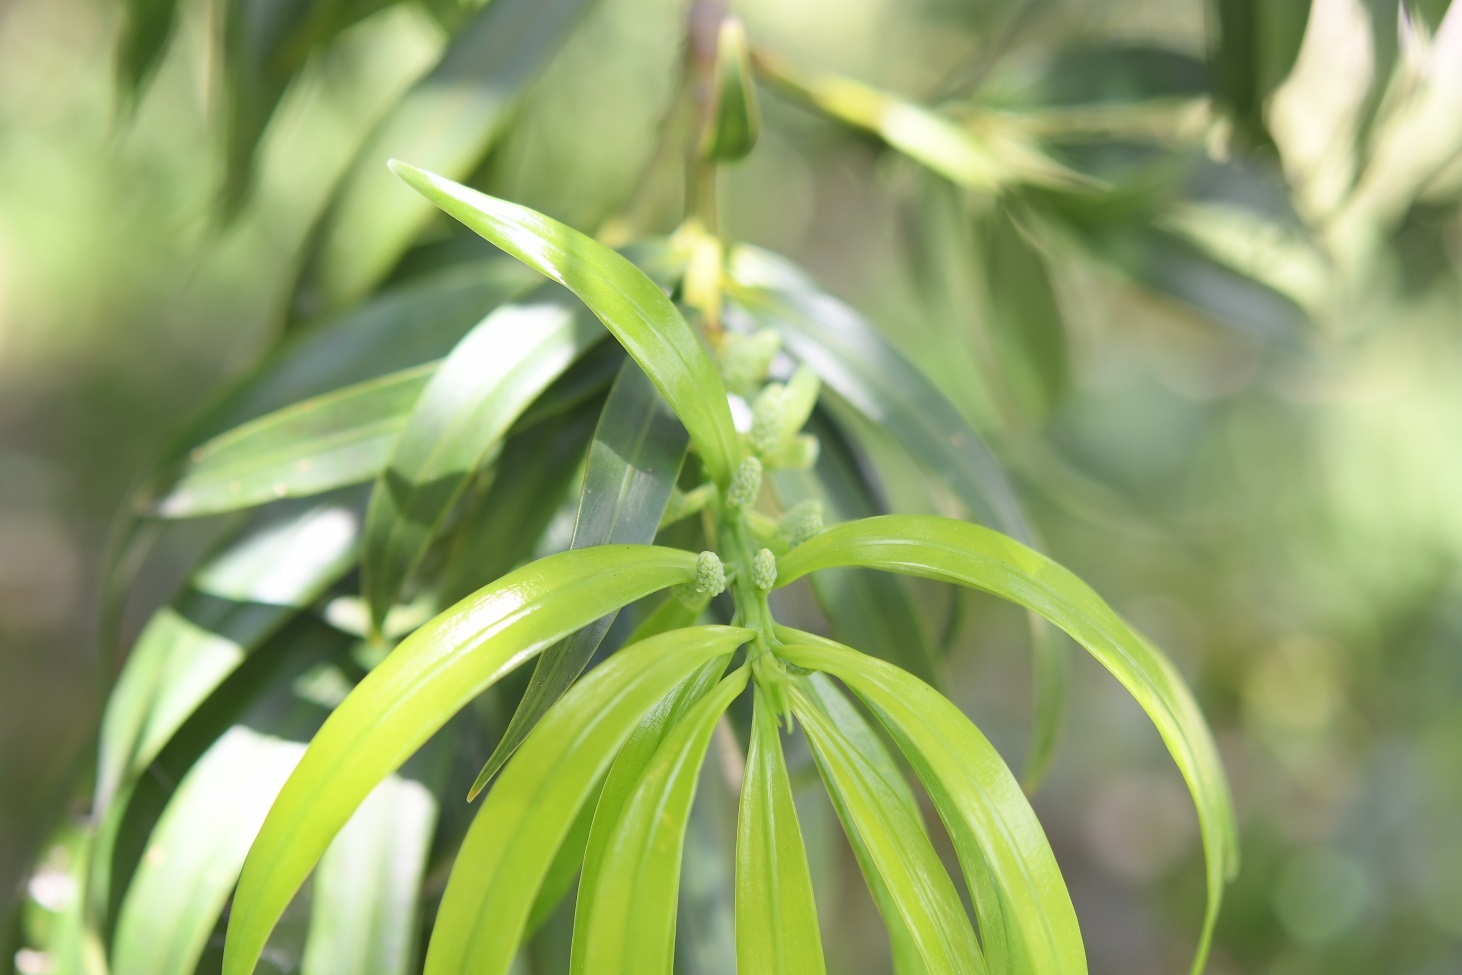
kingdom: Plantae
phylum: Tracheophyta
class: Pinopsida
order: Pinales
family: Podocarpaceae
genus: Podocarpus
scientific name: Podocarpus matudae
